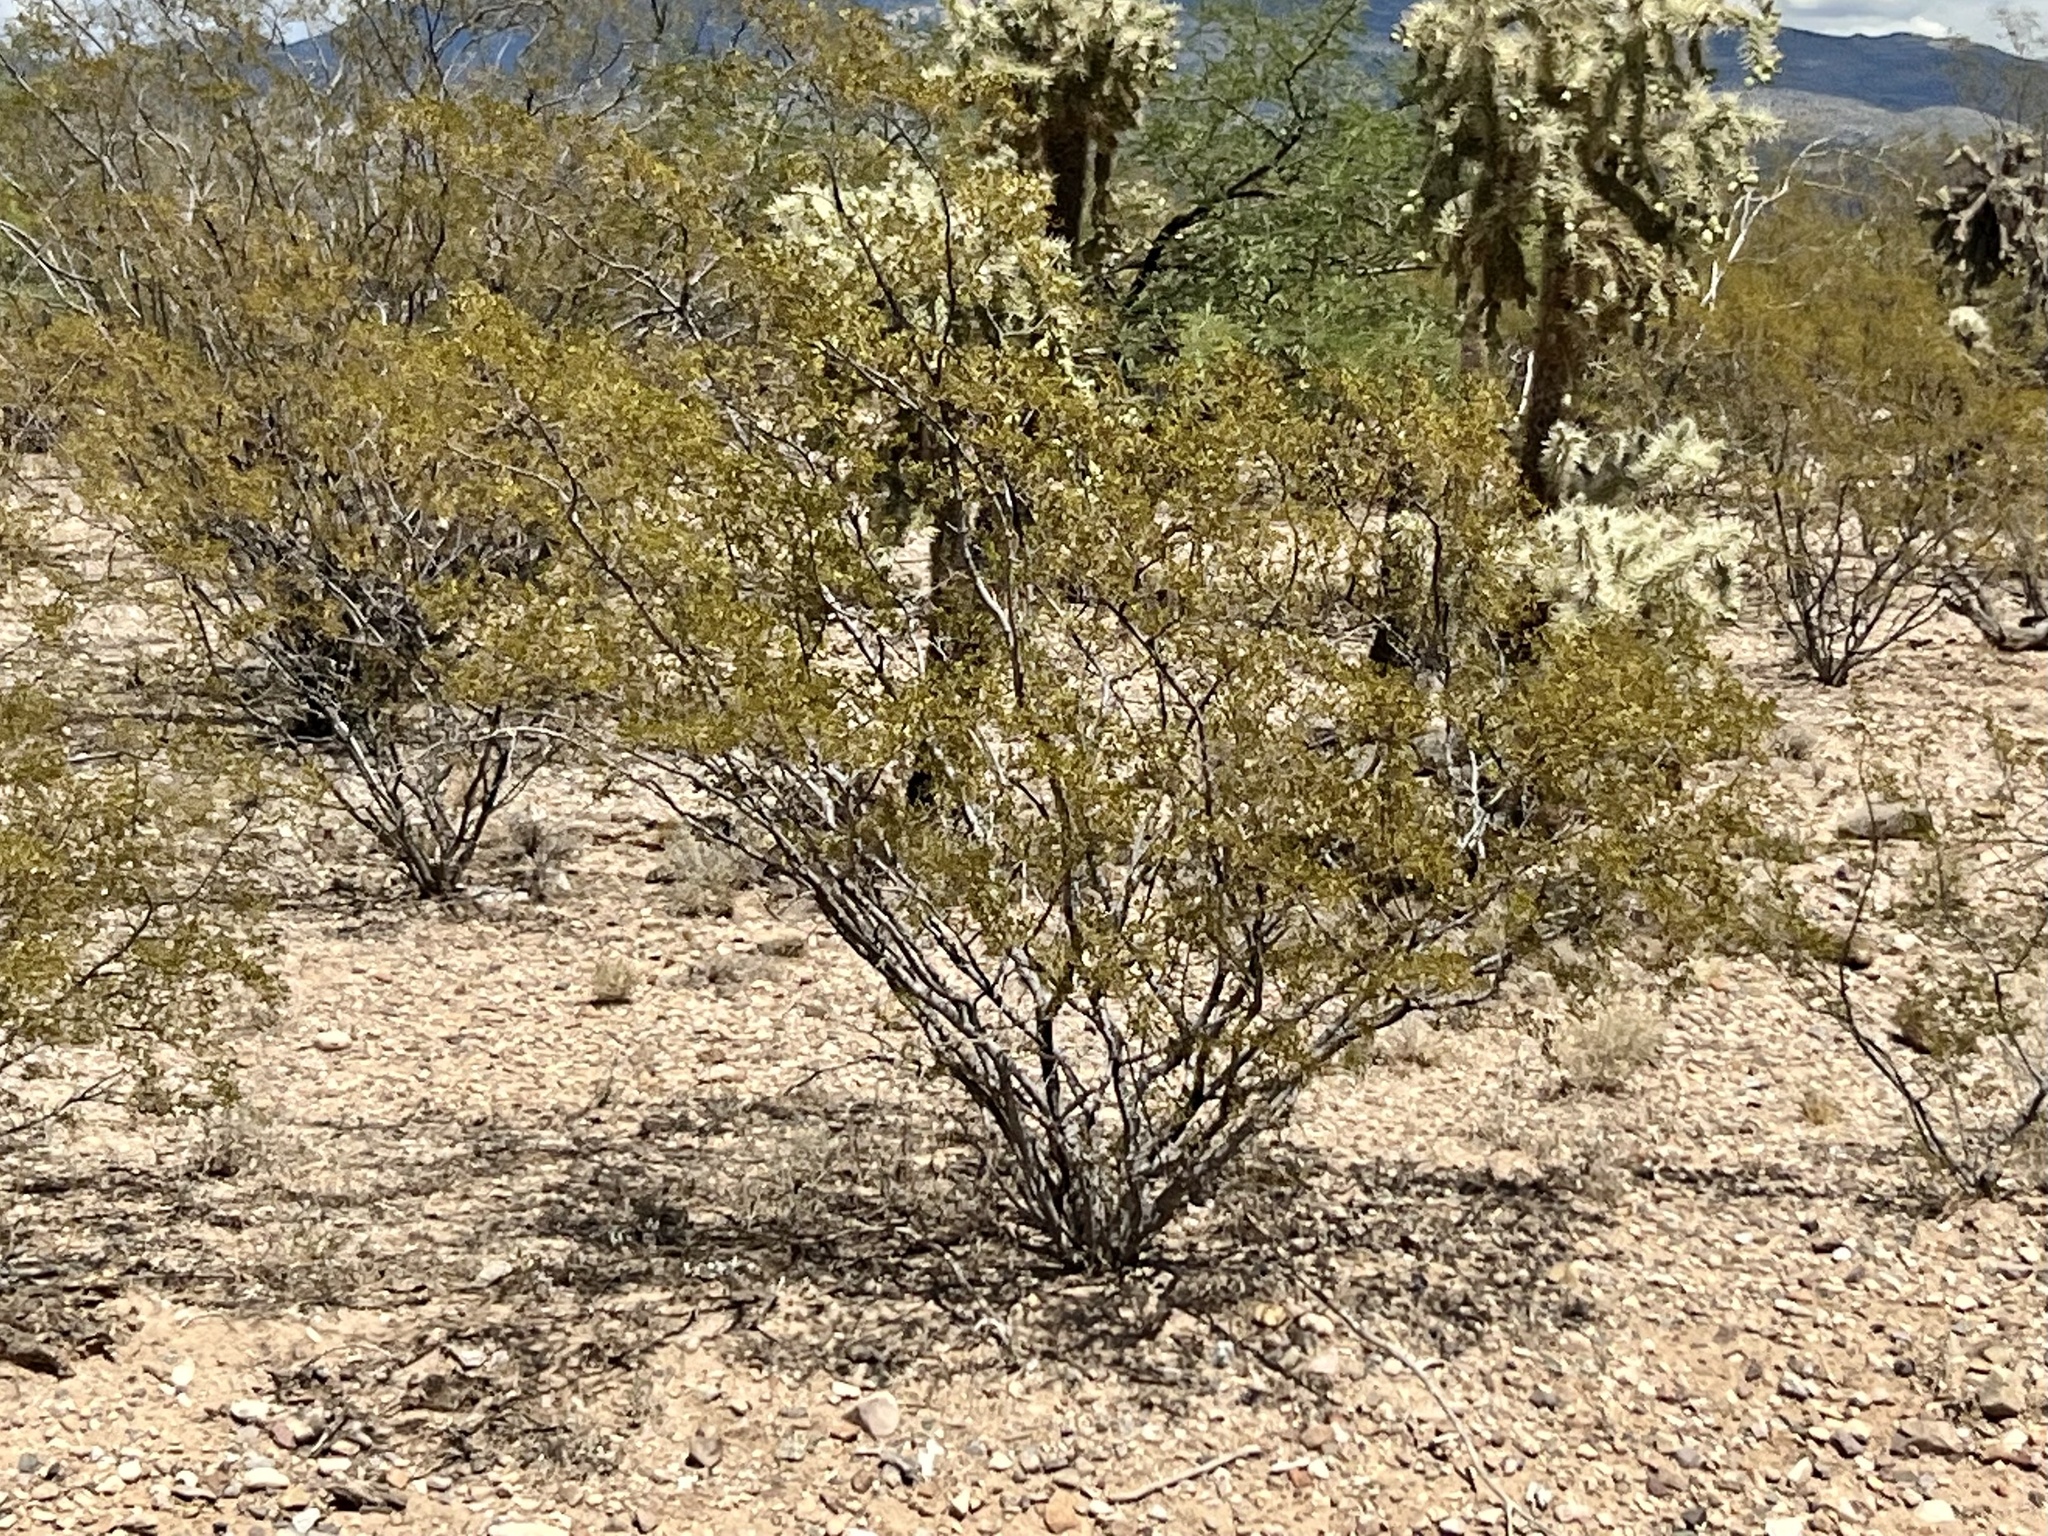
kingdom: Plantae
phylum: Tracheophyta
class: Magnoliopsida
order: Zygophyllales
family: Zygophyllaceae
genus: Larrea
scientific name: Larrea tridentata
